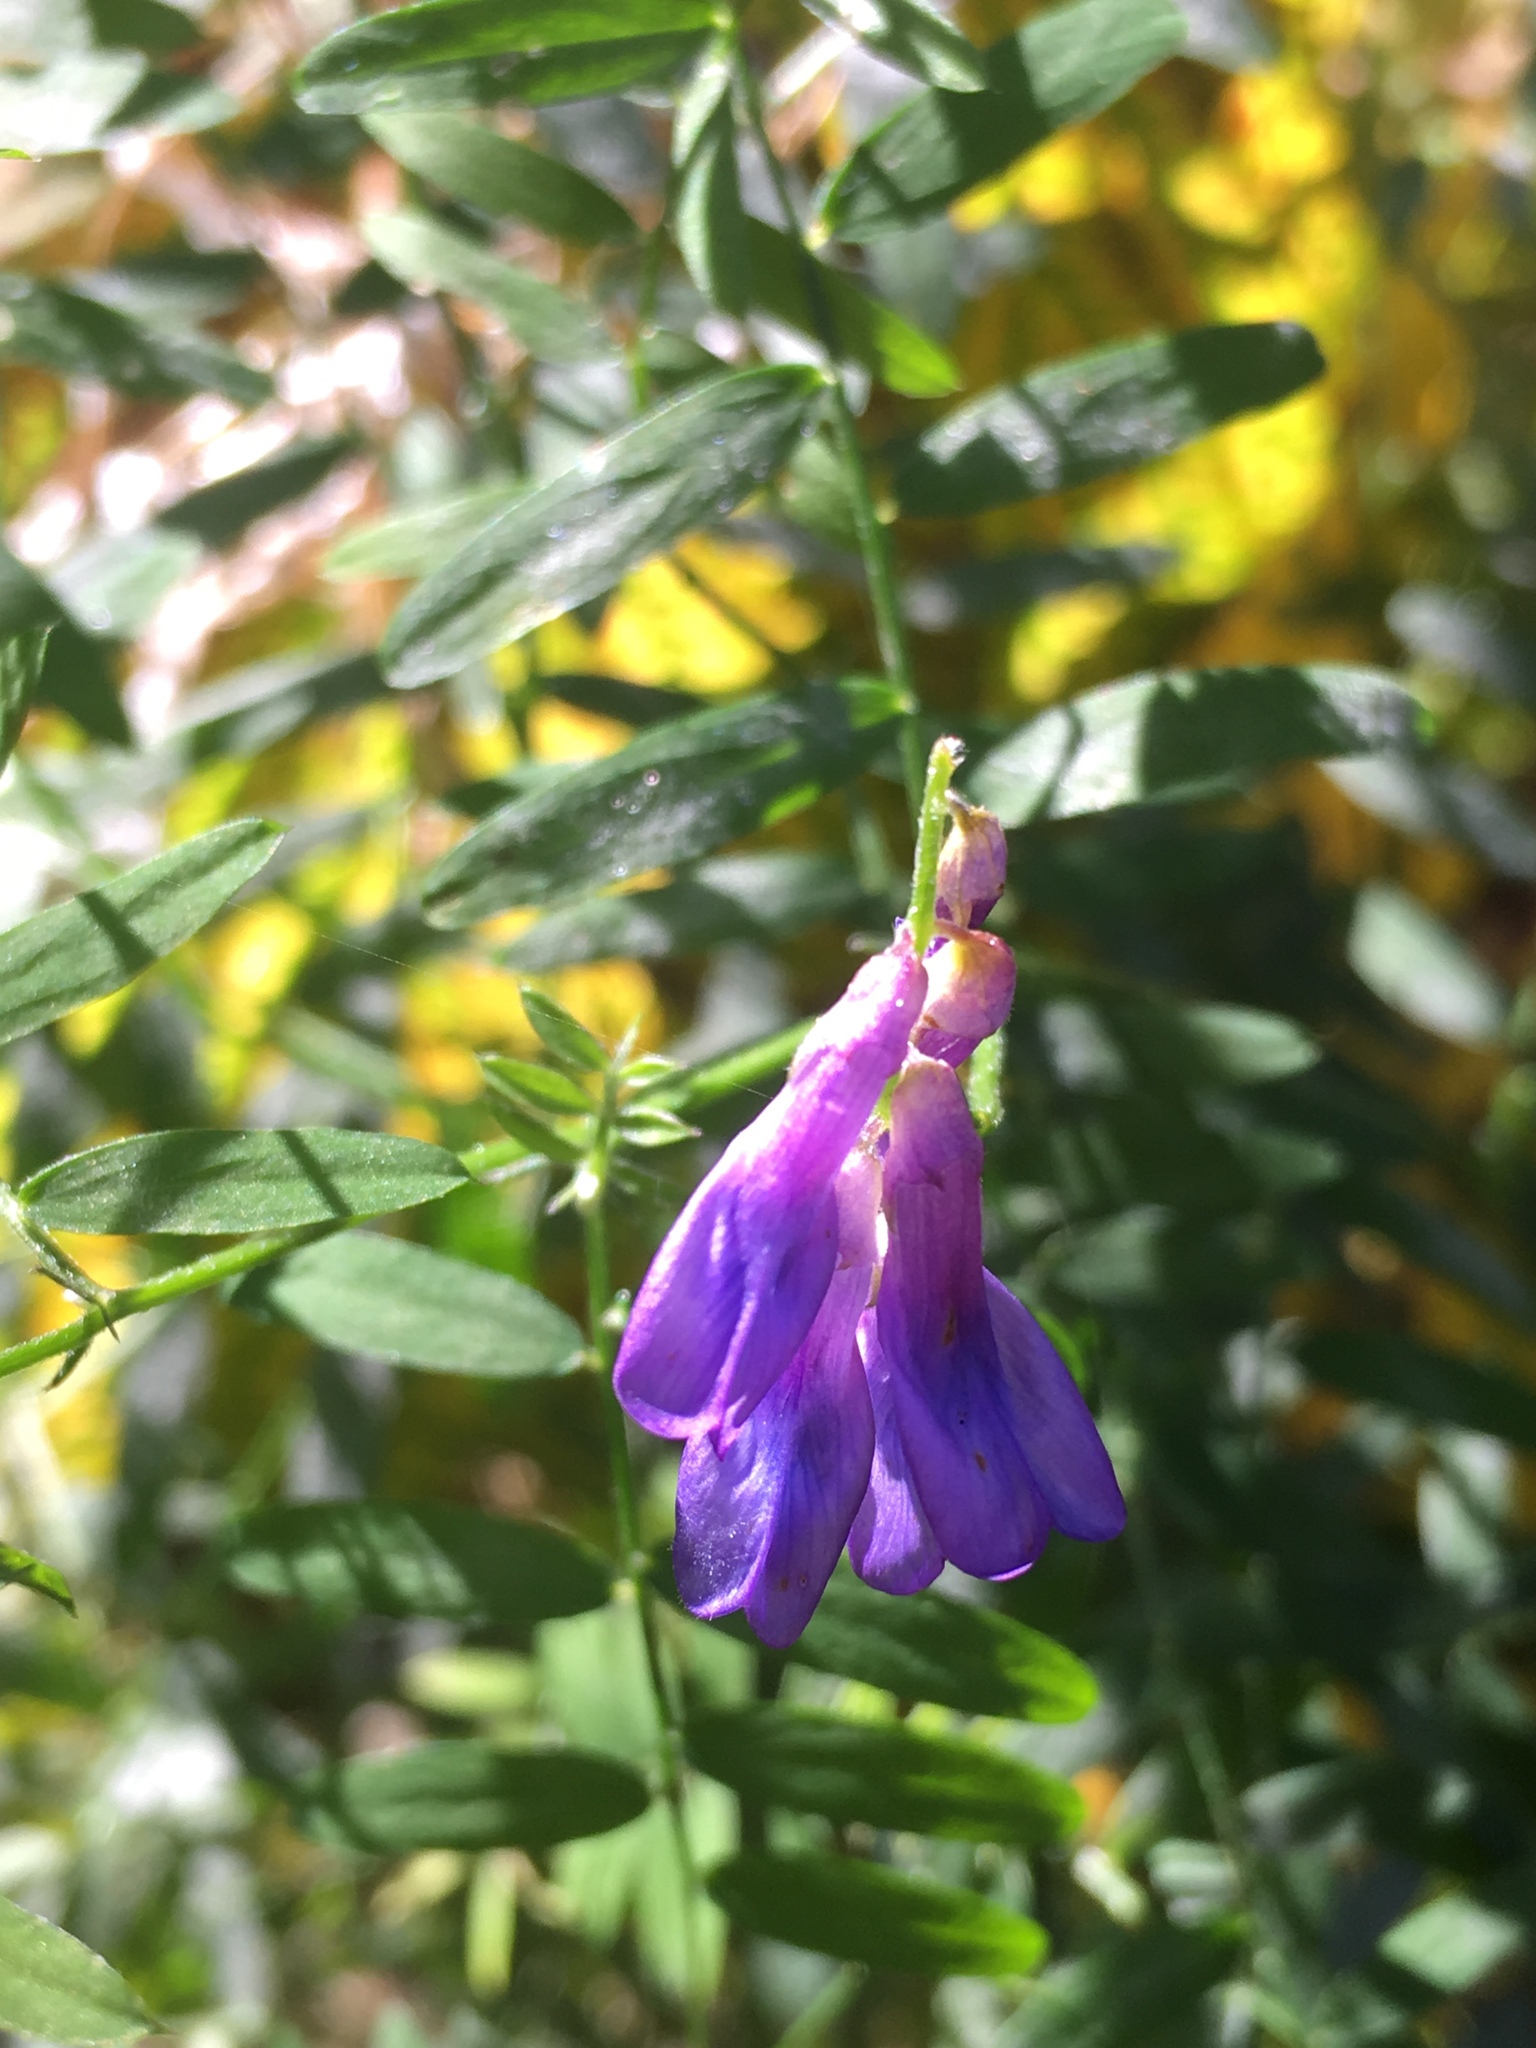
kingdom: Plantae
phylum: Tracheophyta
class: Magnoliopsida
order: Fabales
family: Fabaceae
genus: Vicia
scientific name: Vicia cracca
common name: Bird vetch
